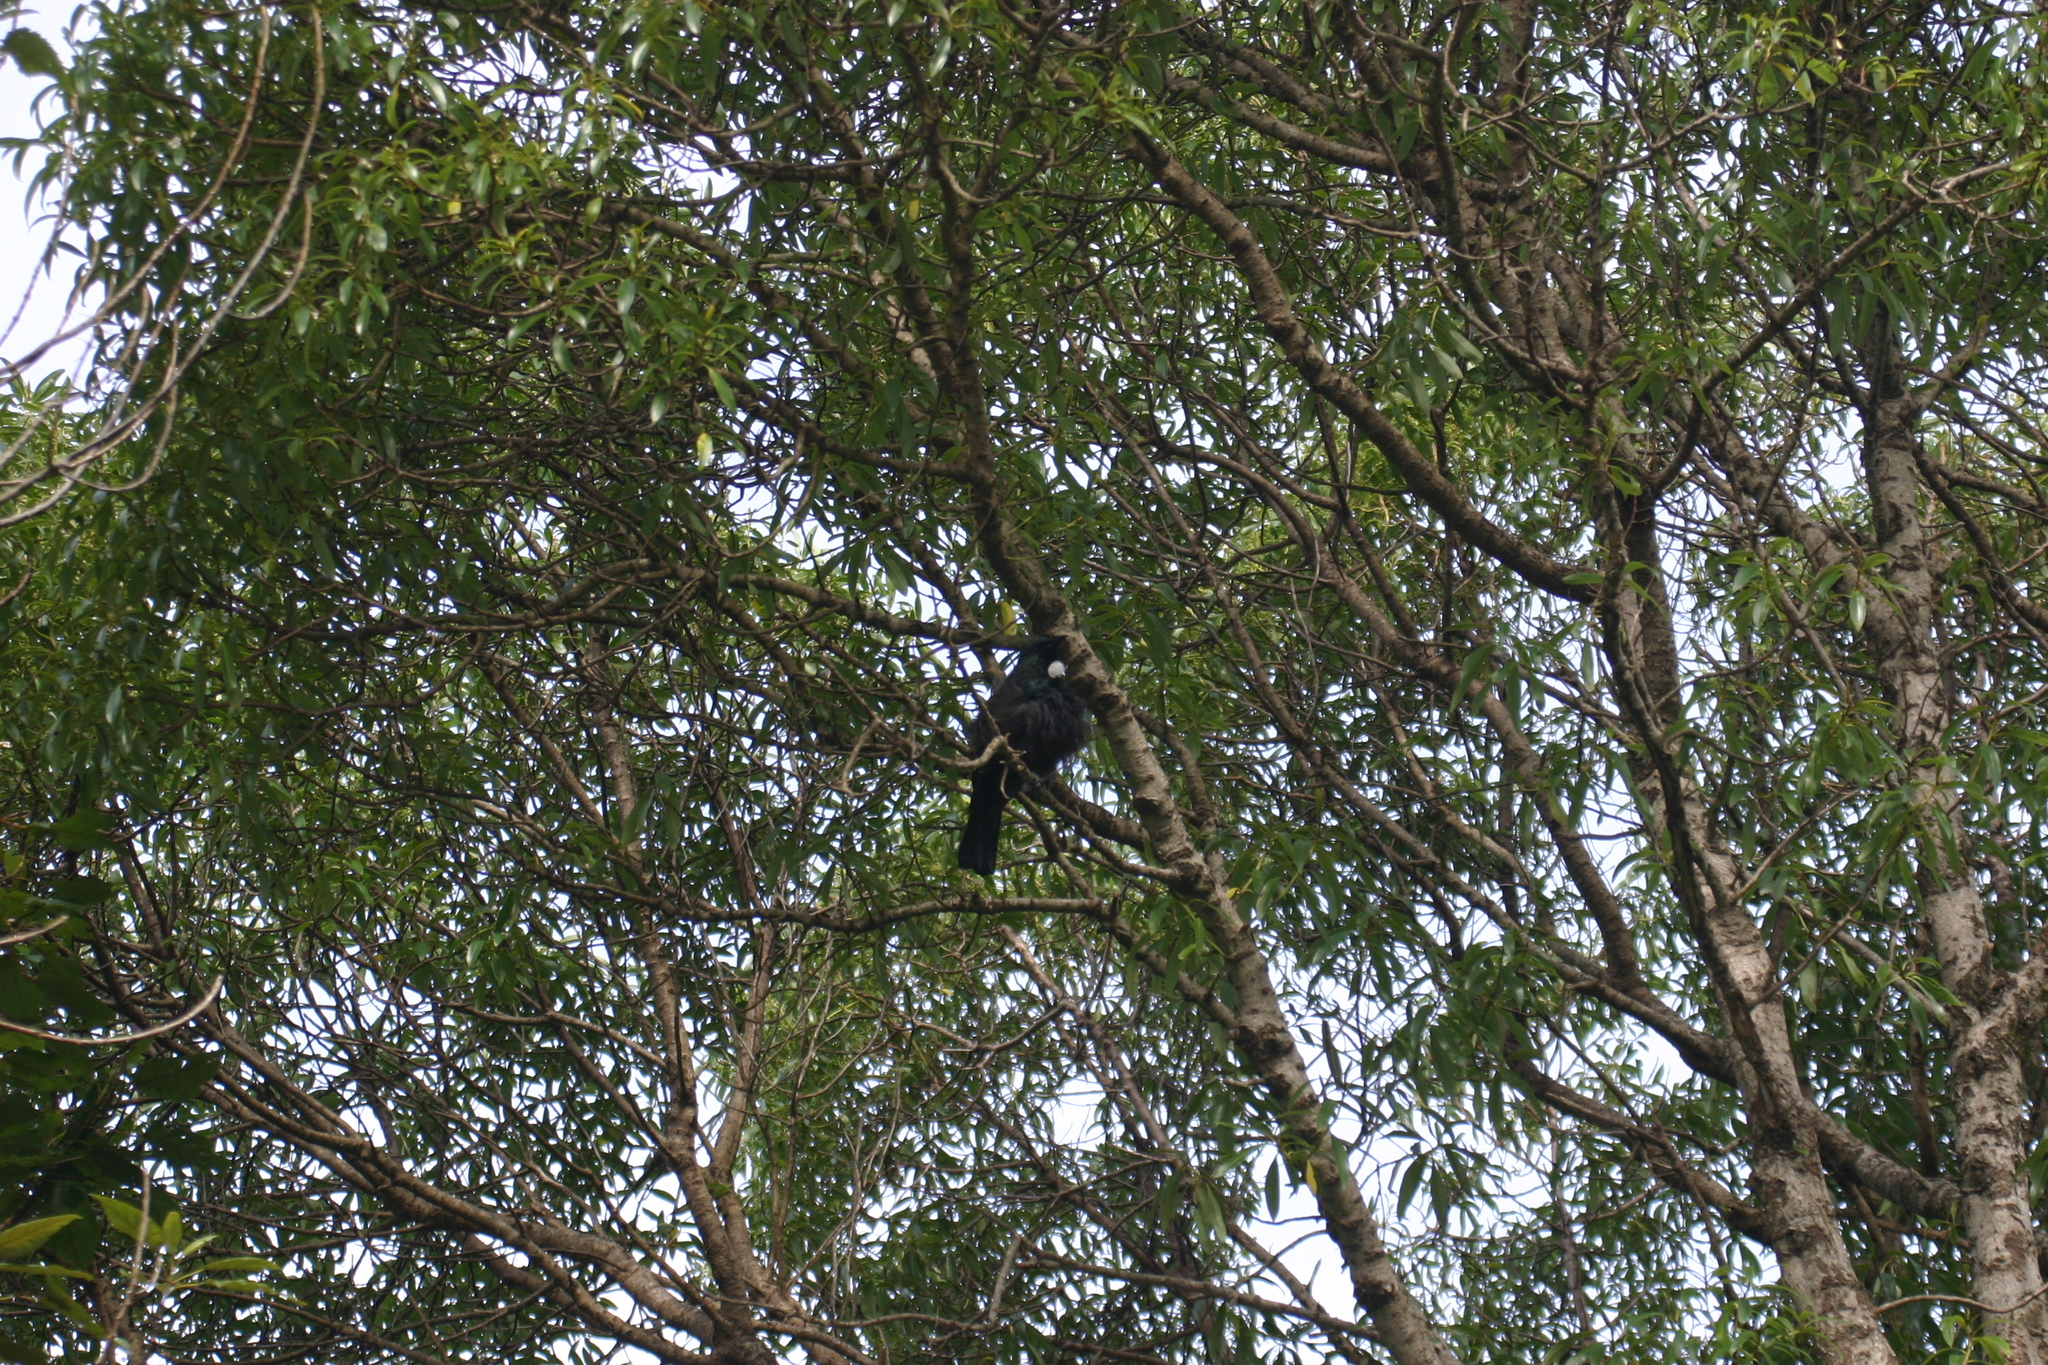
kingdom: Animalia
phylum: Chordata
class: Aves
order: Passeriformes
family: Meliphagidae
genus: Prosthemadera
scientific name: Prosthemadera novaeseelandiae
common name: Tui
